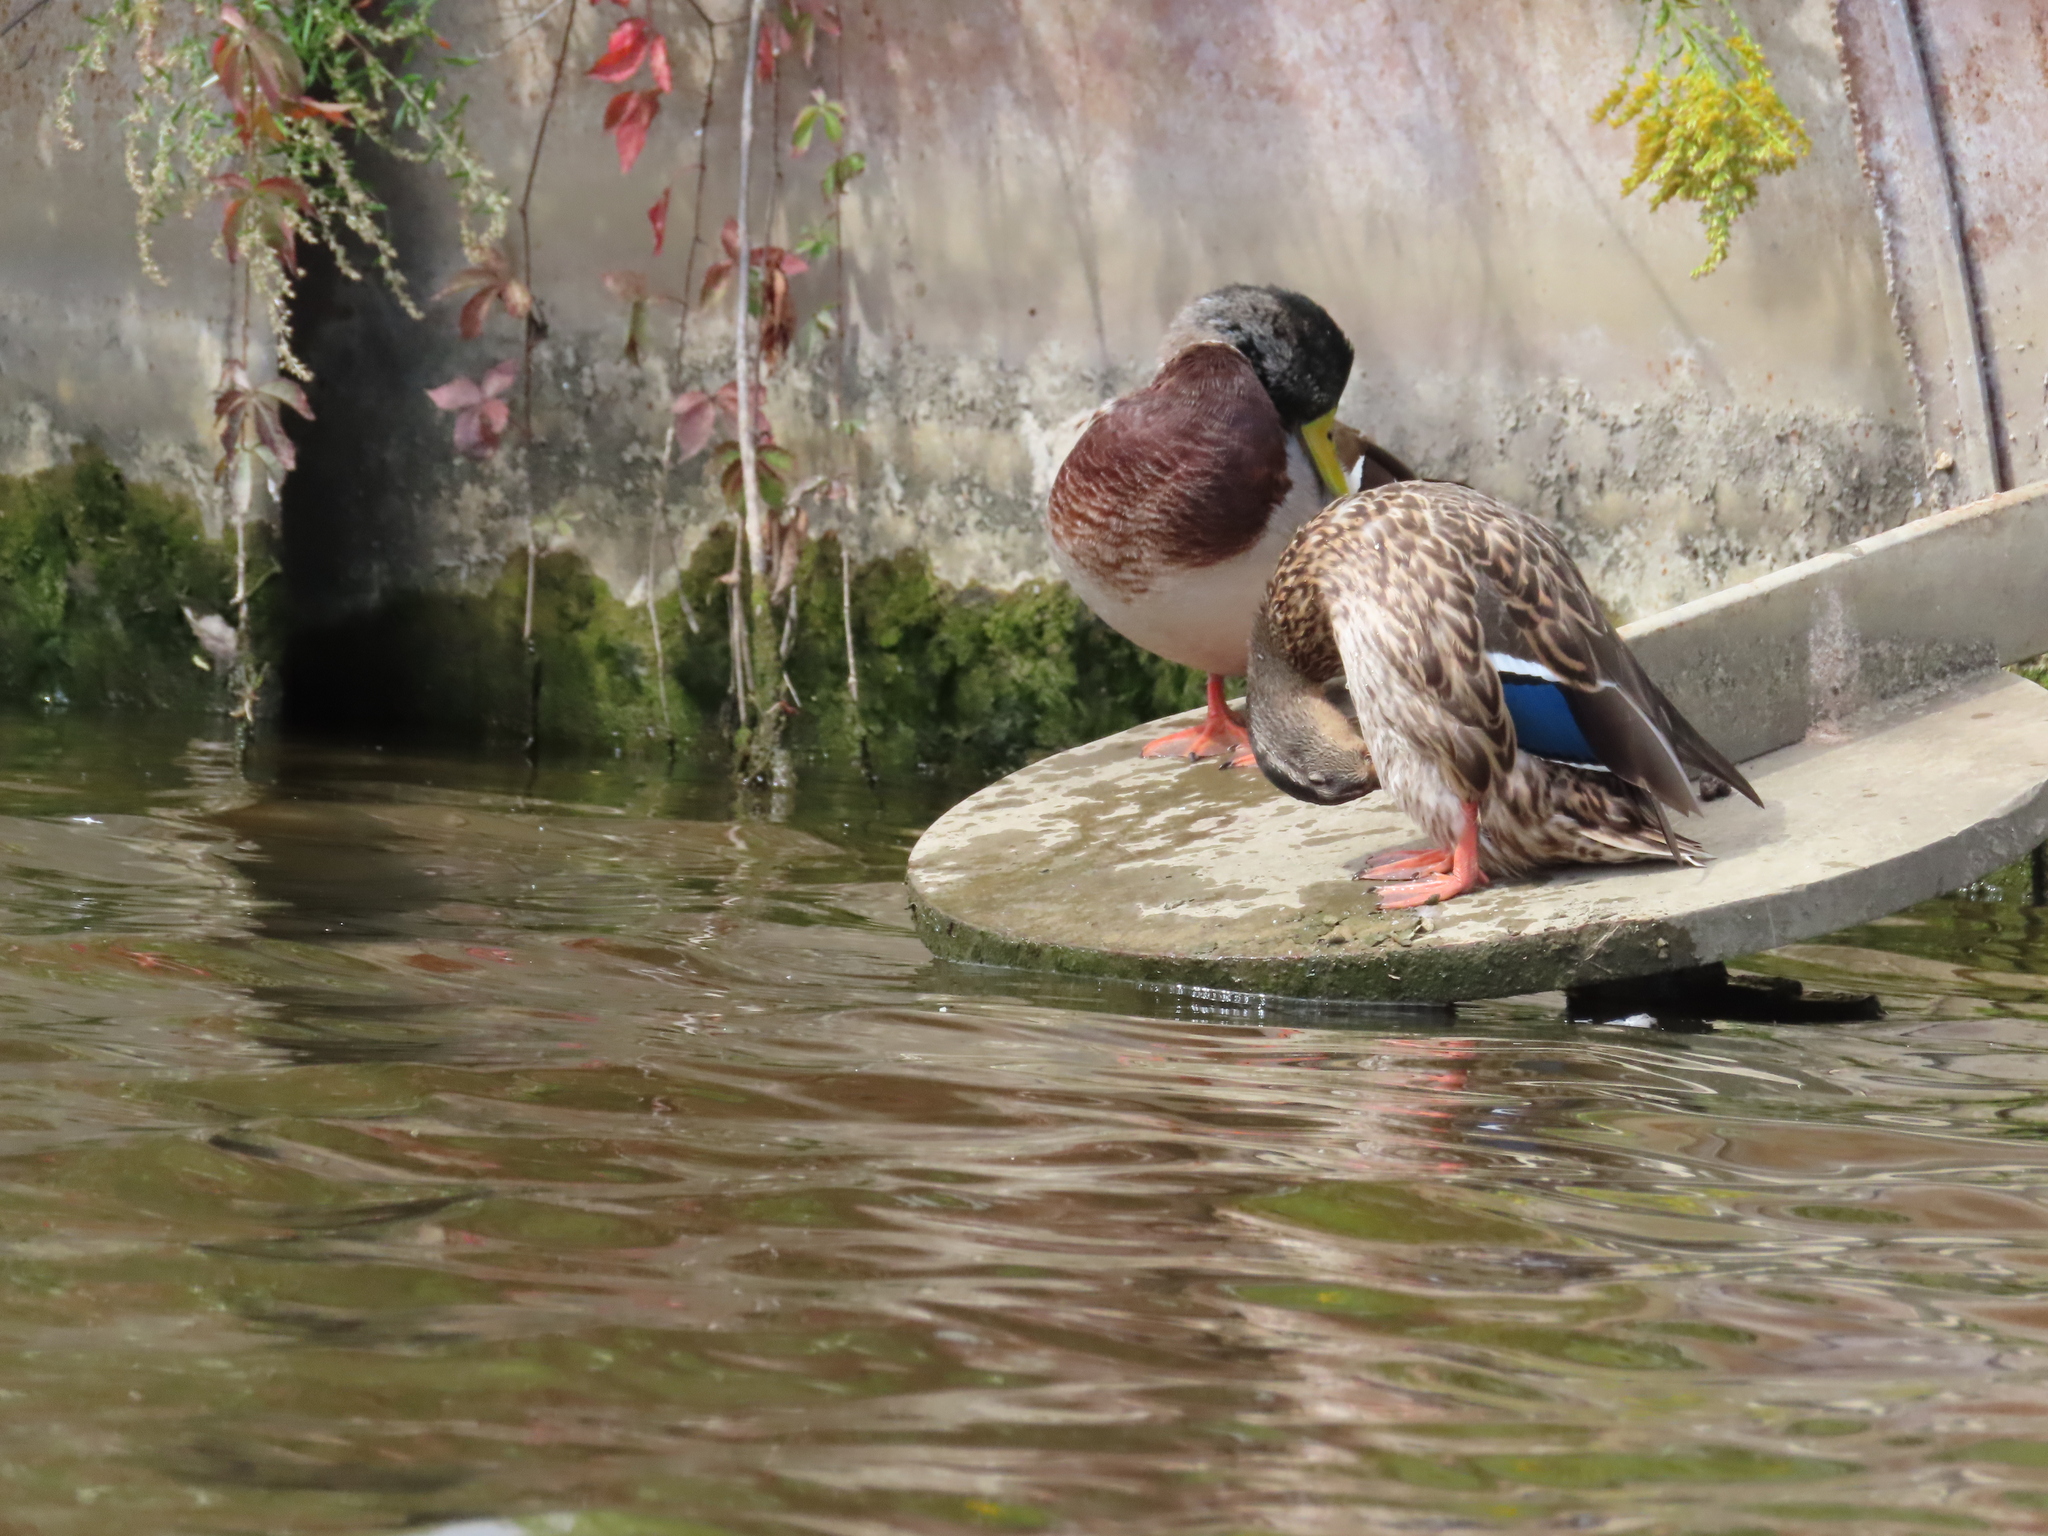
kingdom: Animalia
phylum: Chordata
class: Aves
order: Anseriformes
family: Anatidae
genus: Anas
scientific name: Anas platyrhynchos
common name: Mallard
